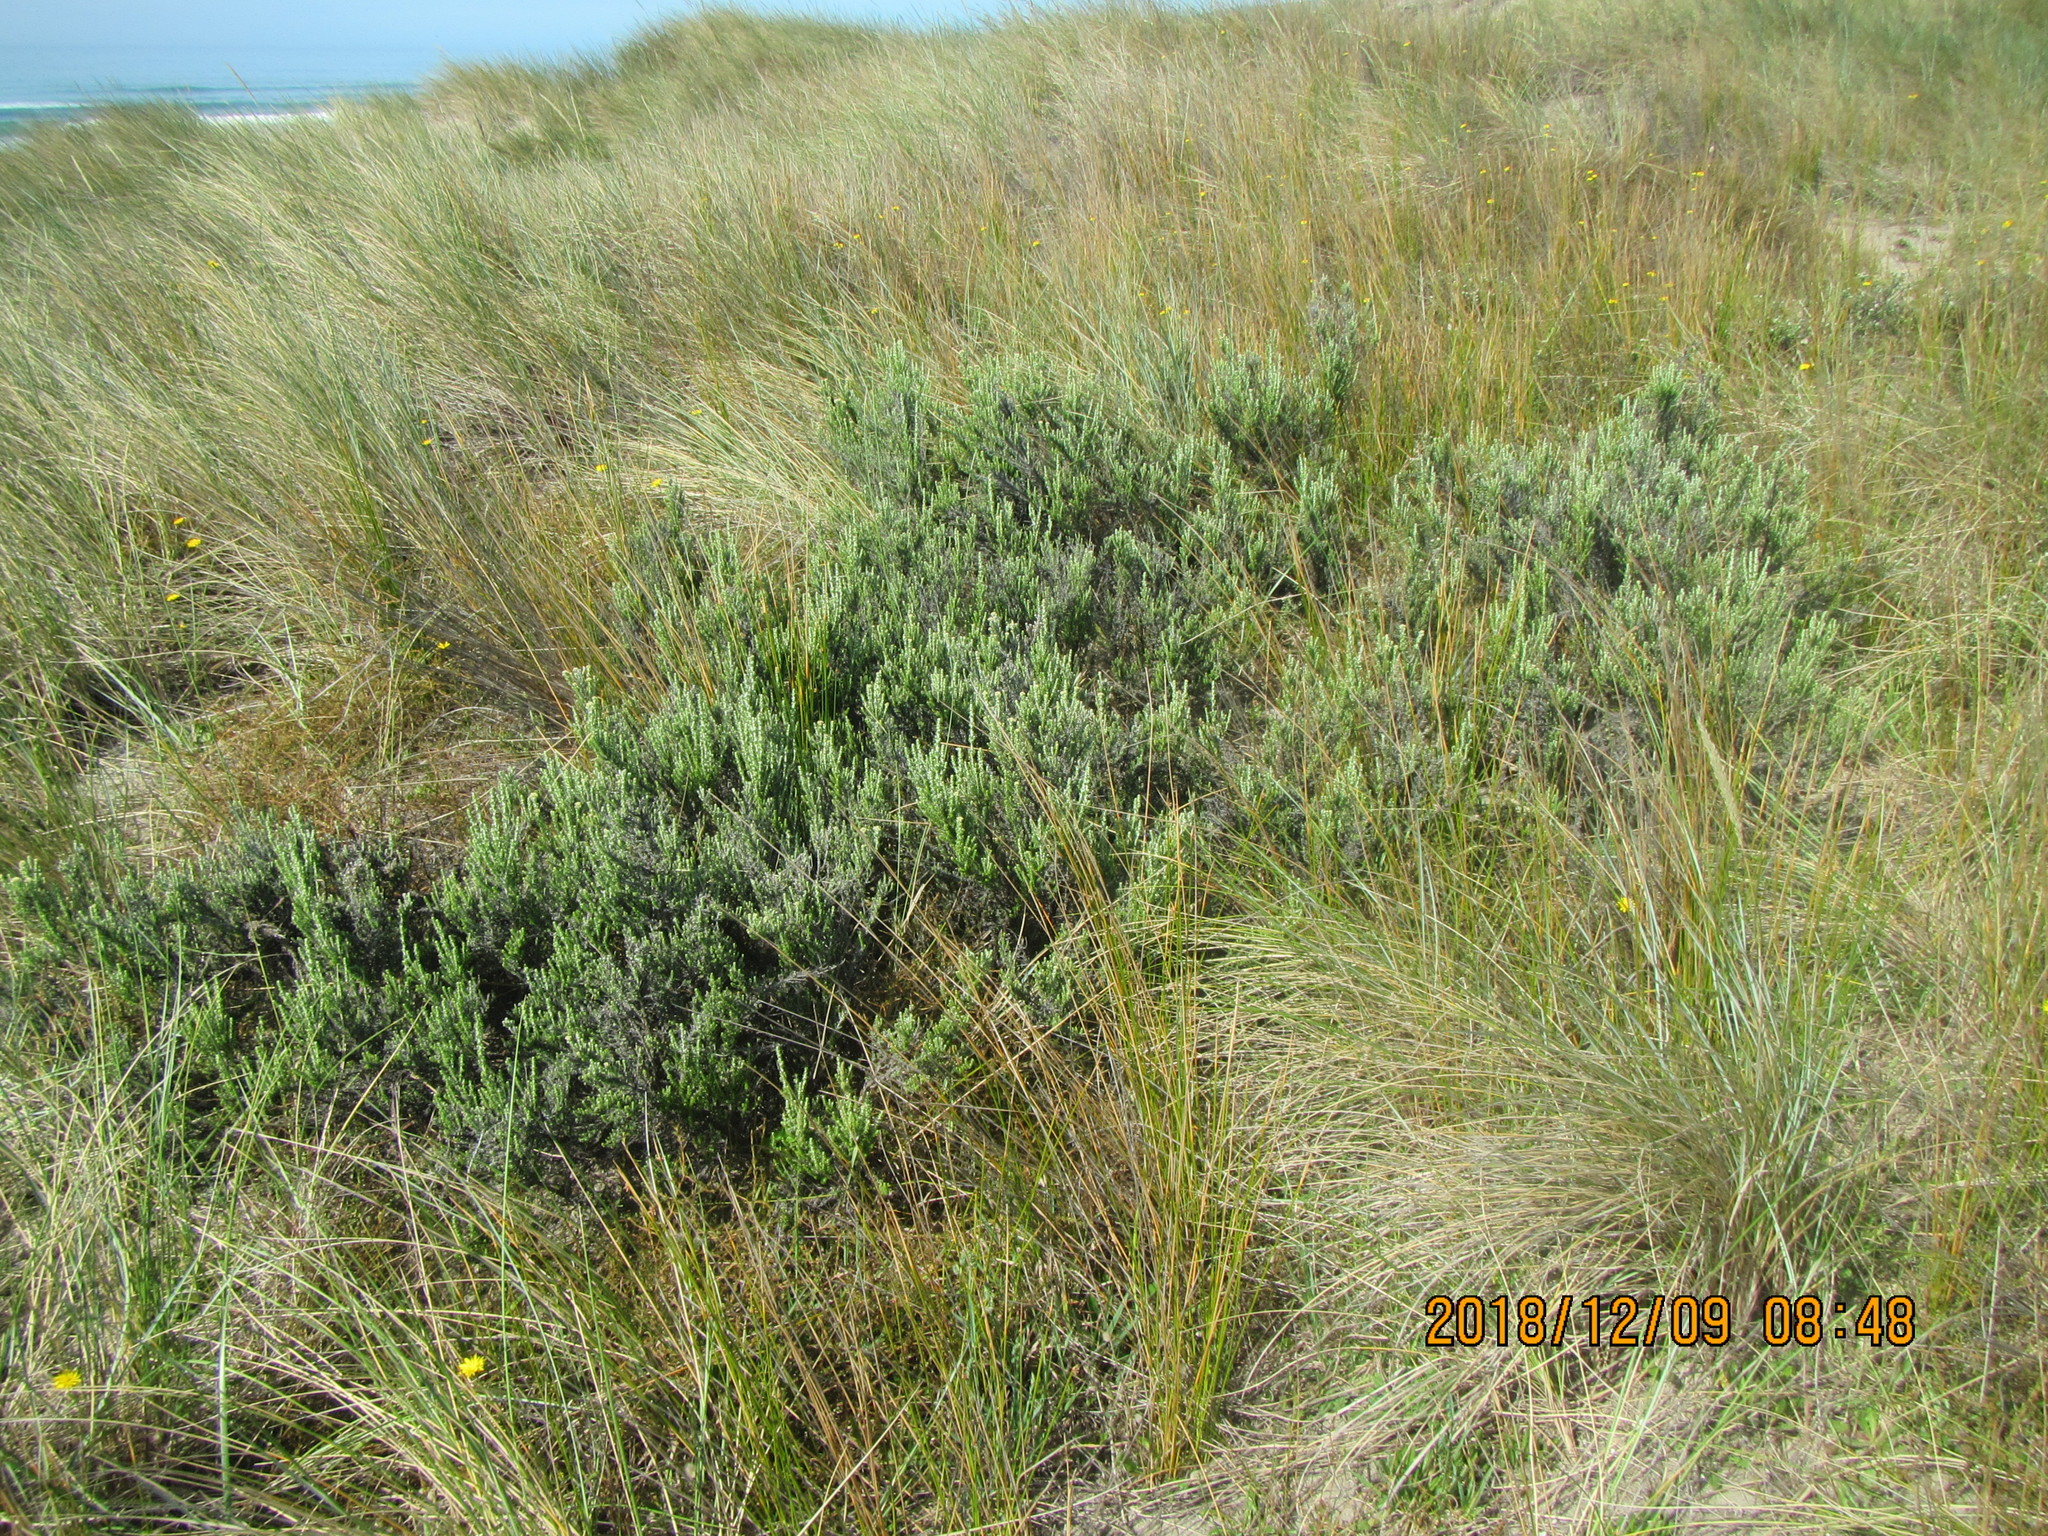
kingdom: Plantae
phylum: Tracheophyta
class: Magnoliopsida
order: Asterales
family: Asteraceae
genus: Ozothamnus
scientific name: Ozothamnus leptophyllus
